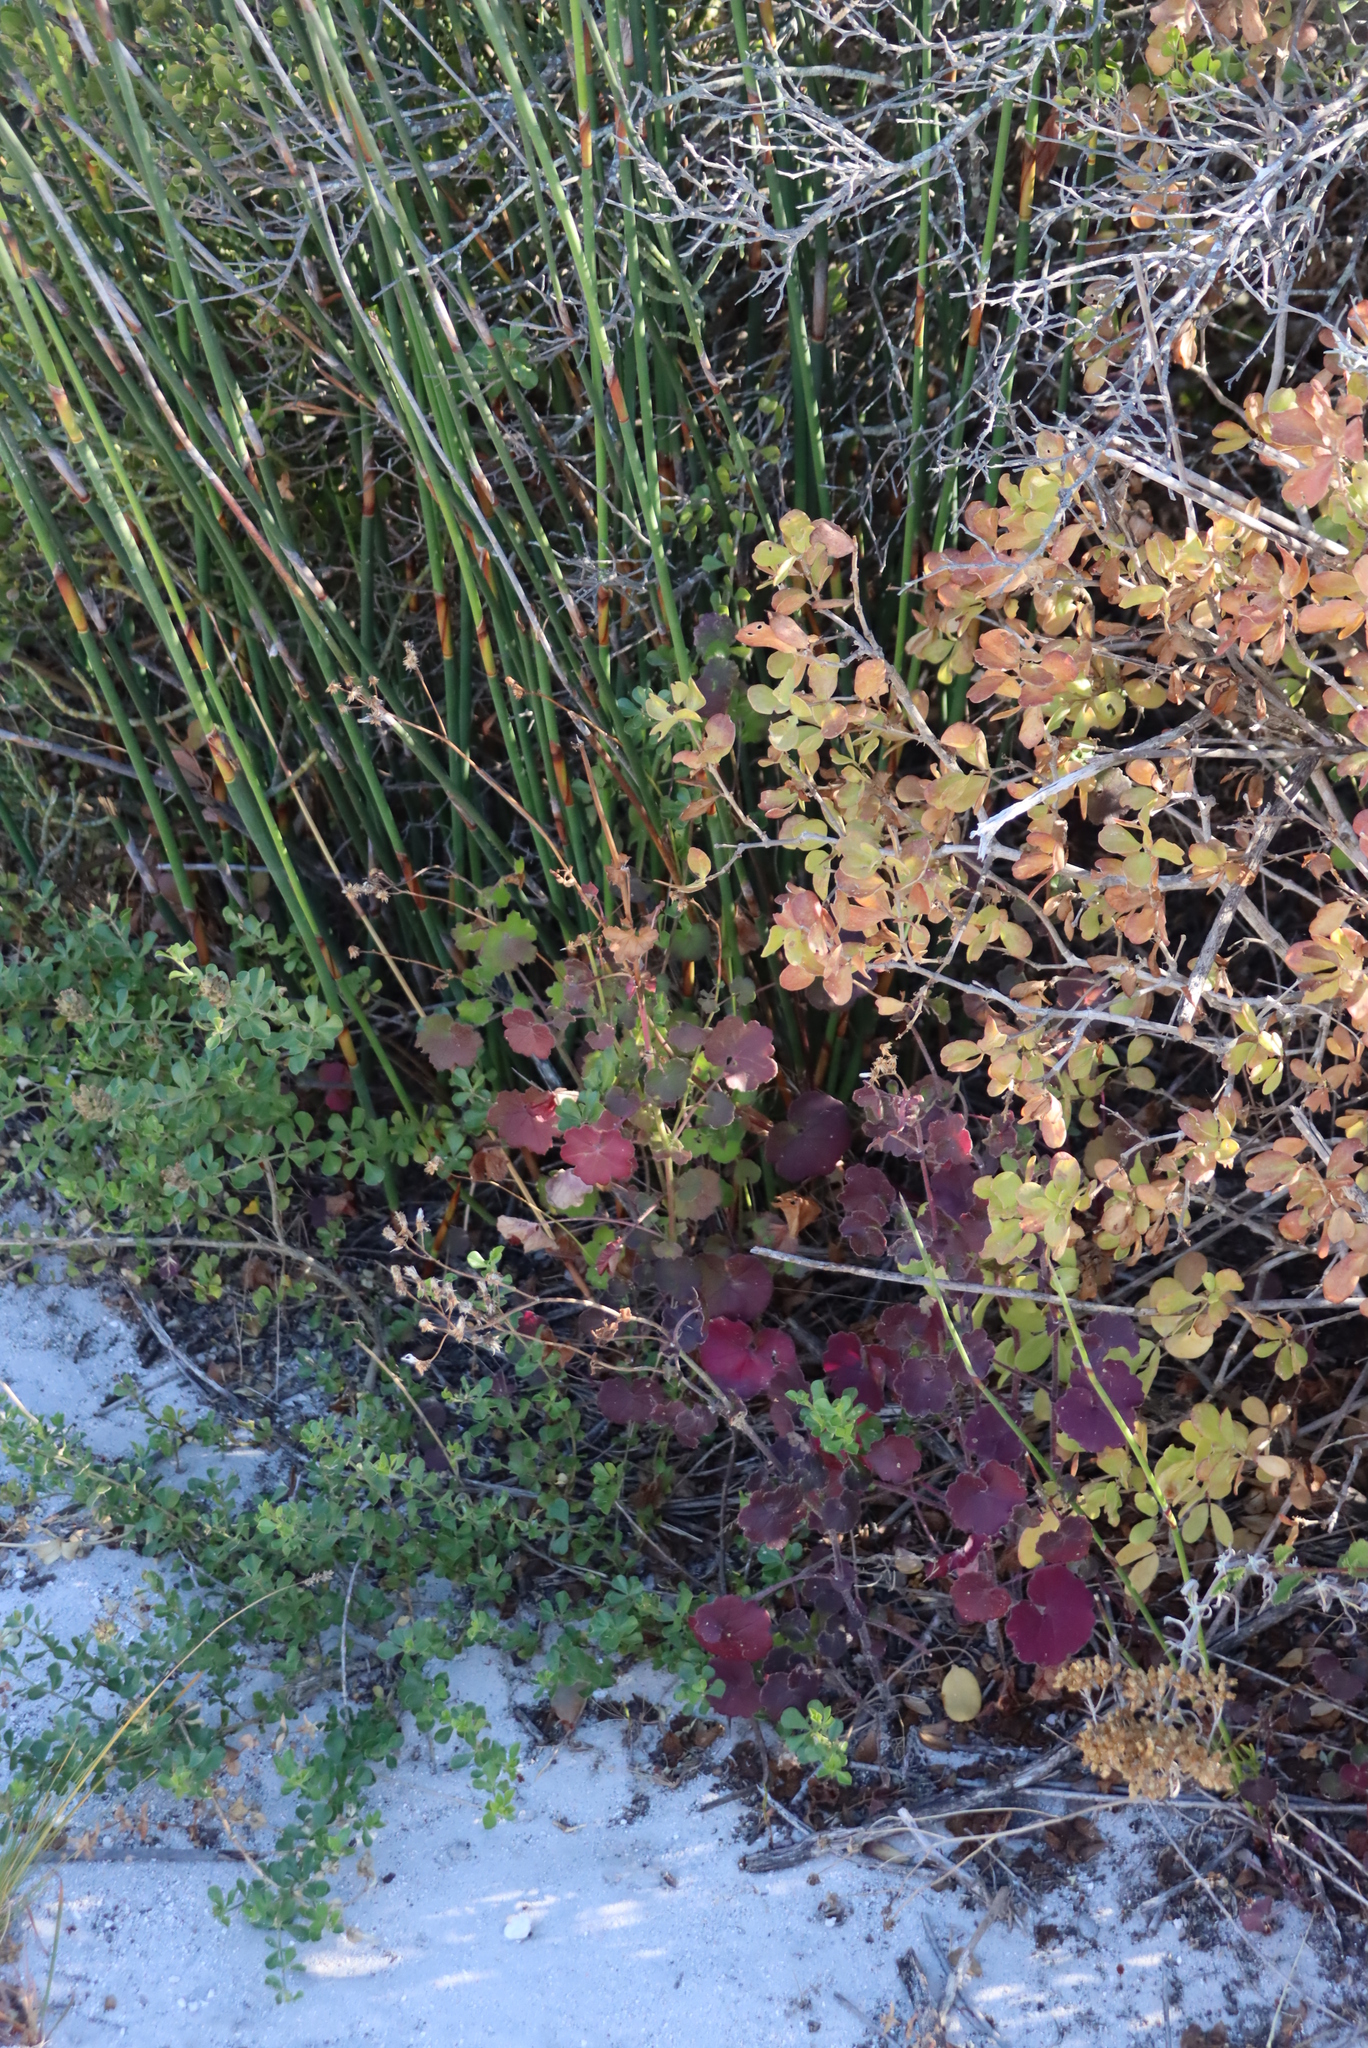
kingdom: Plantae
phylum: Tracheophyta
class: Magnoliopsida
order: Asterales
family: Asteraceae
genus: Cineraria
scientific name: Cineraria geifolia
